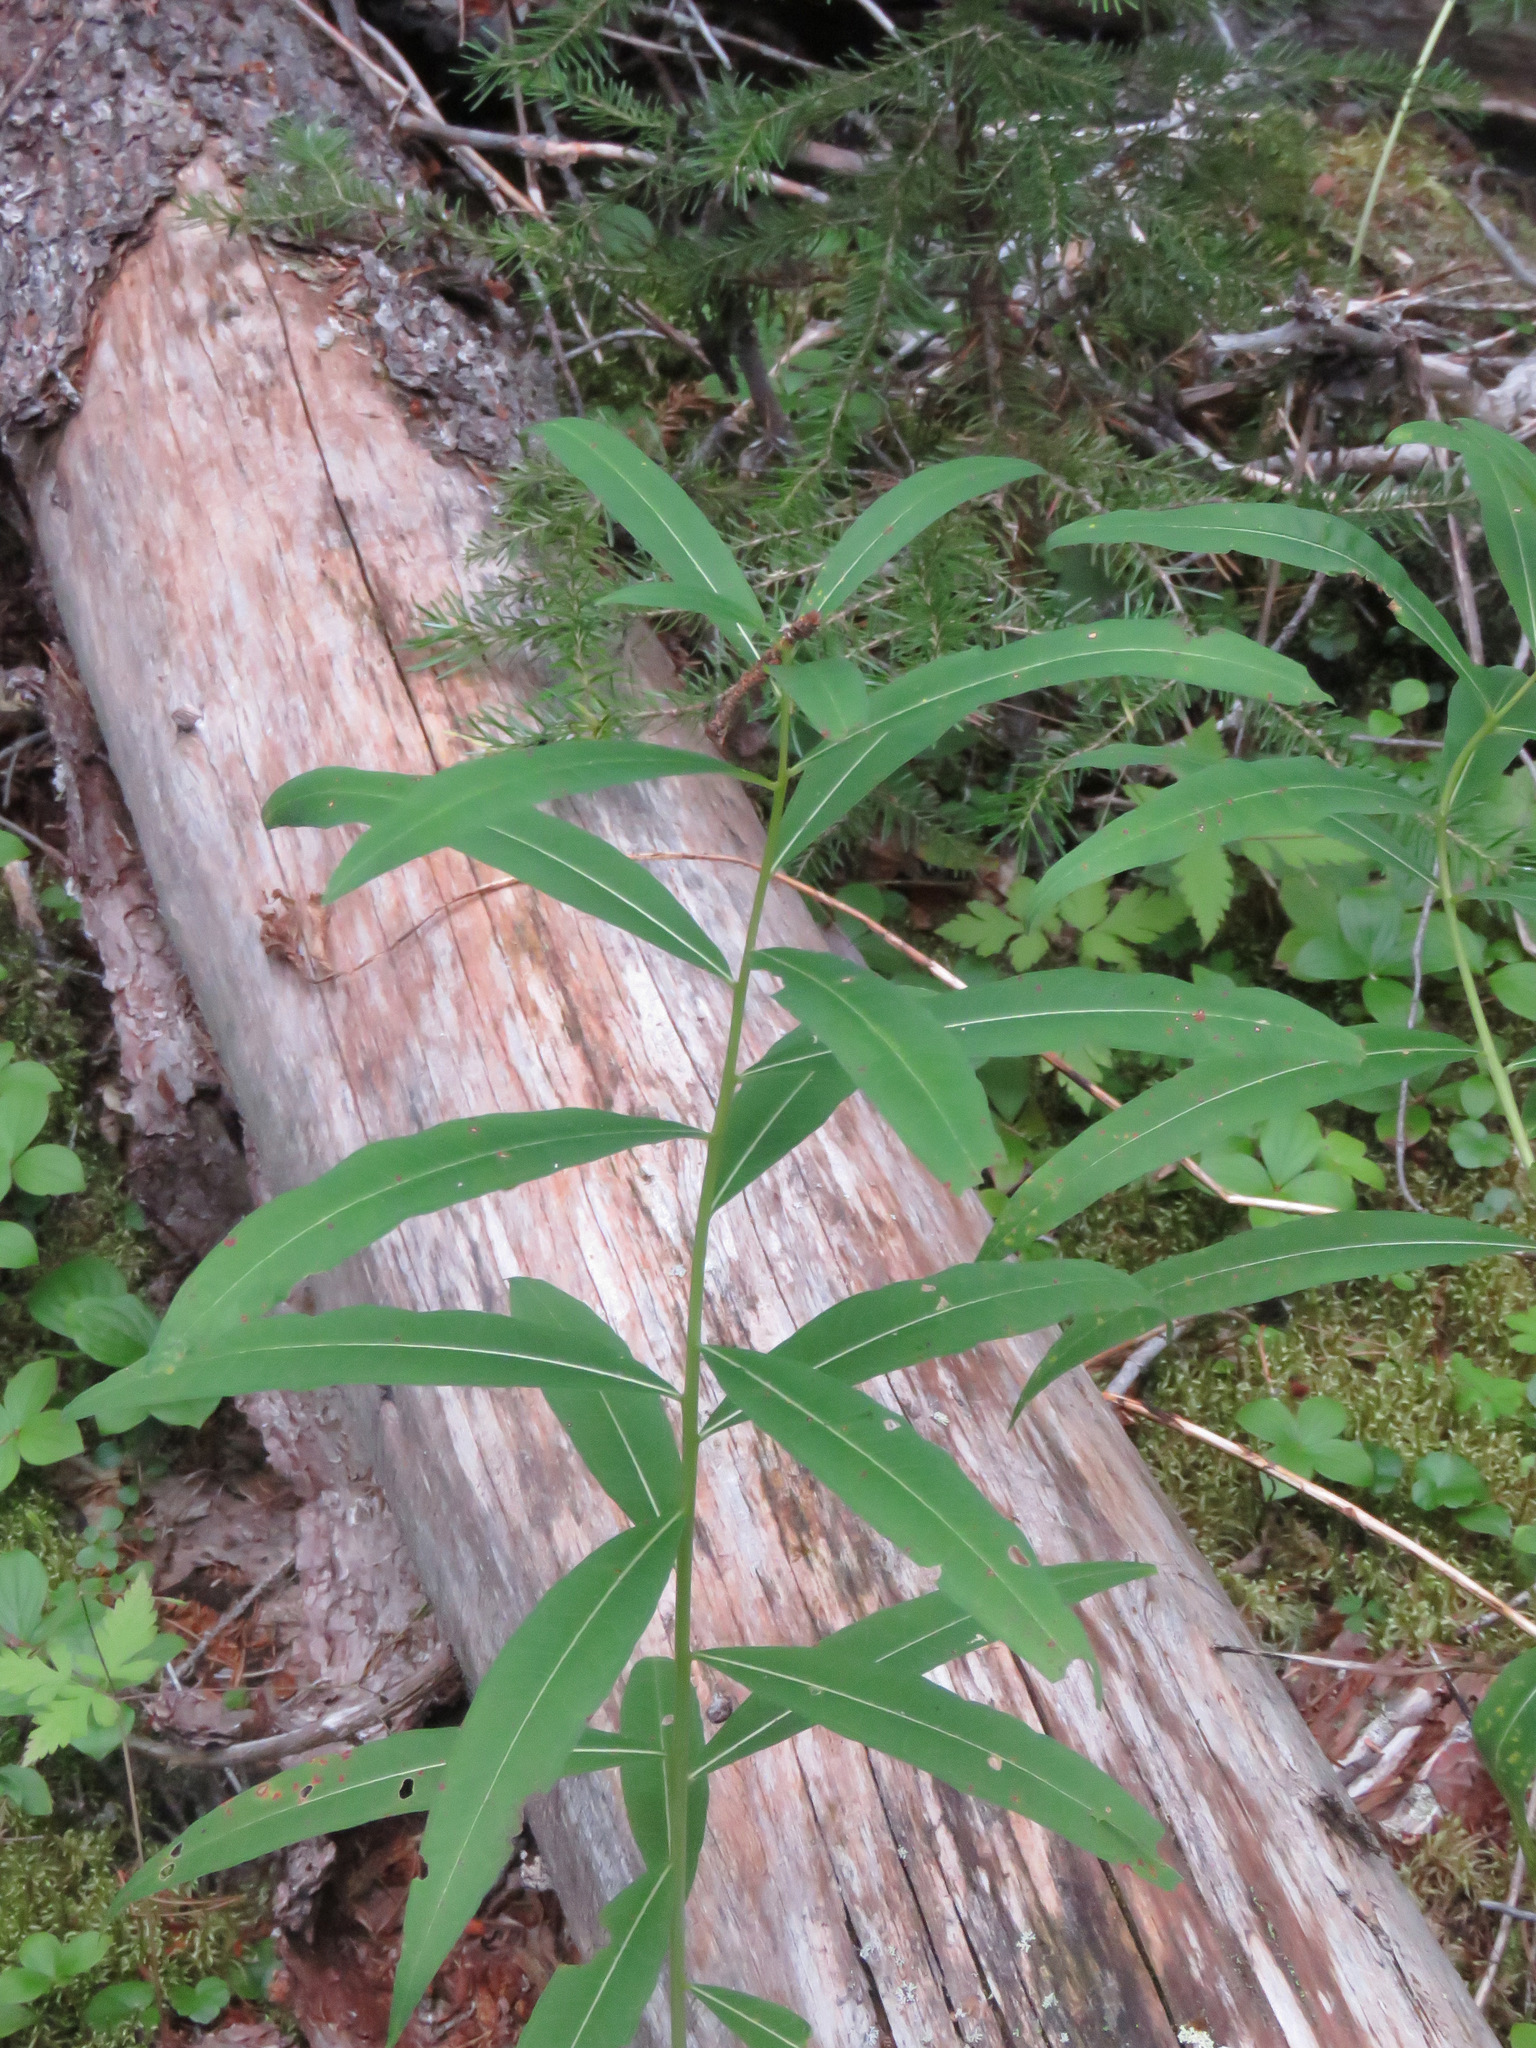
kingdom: Plantae
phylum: Tracheophyta
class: Magnoliopsida
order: Myrtales
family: Onagraceae
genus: Chamaenerion
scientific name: Chamaenerion angustifolium
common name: Fireweed
